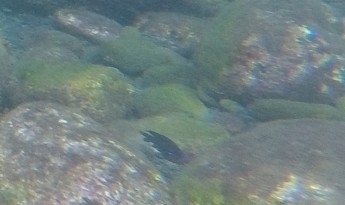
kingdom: Animalia
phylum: Chordata
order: Perciformes
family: Pomacentridae
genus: Similiparma
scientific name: Similiparma lurida
